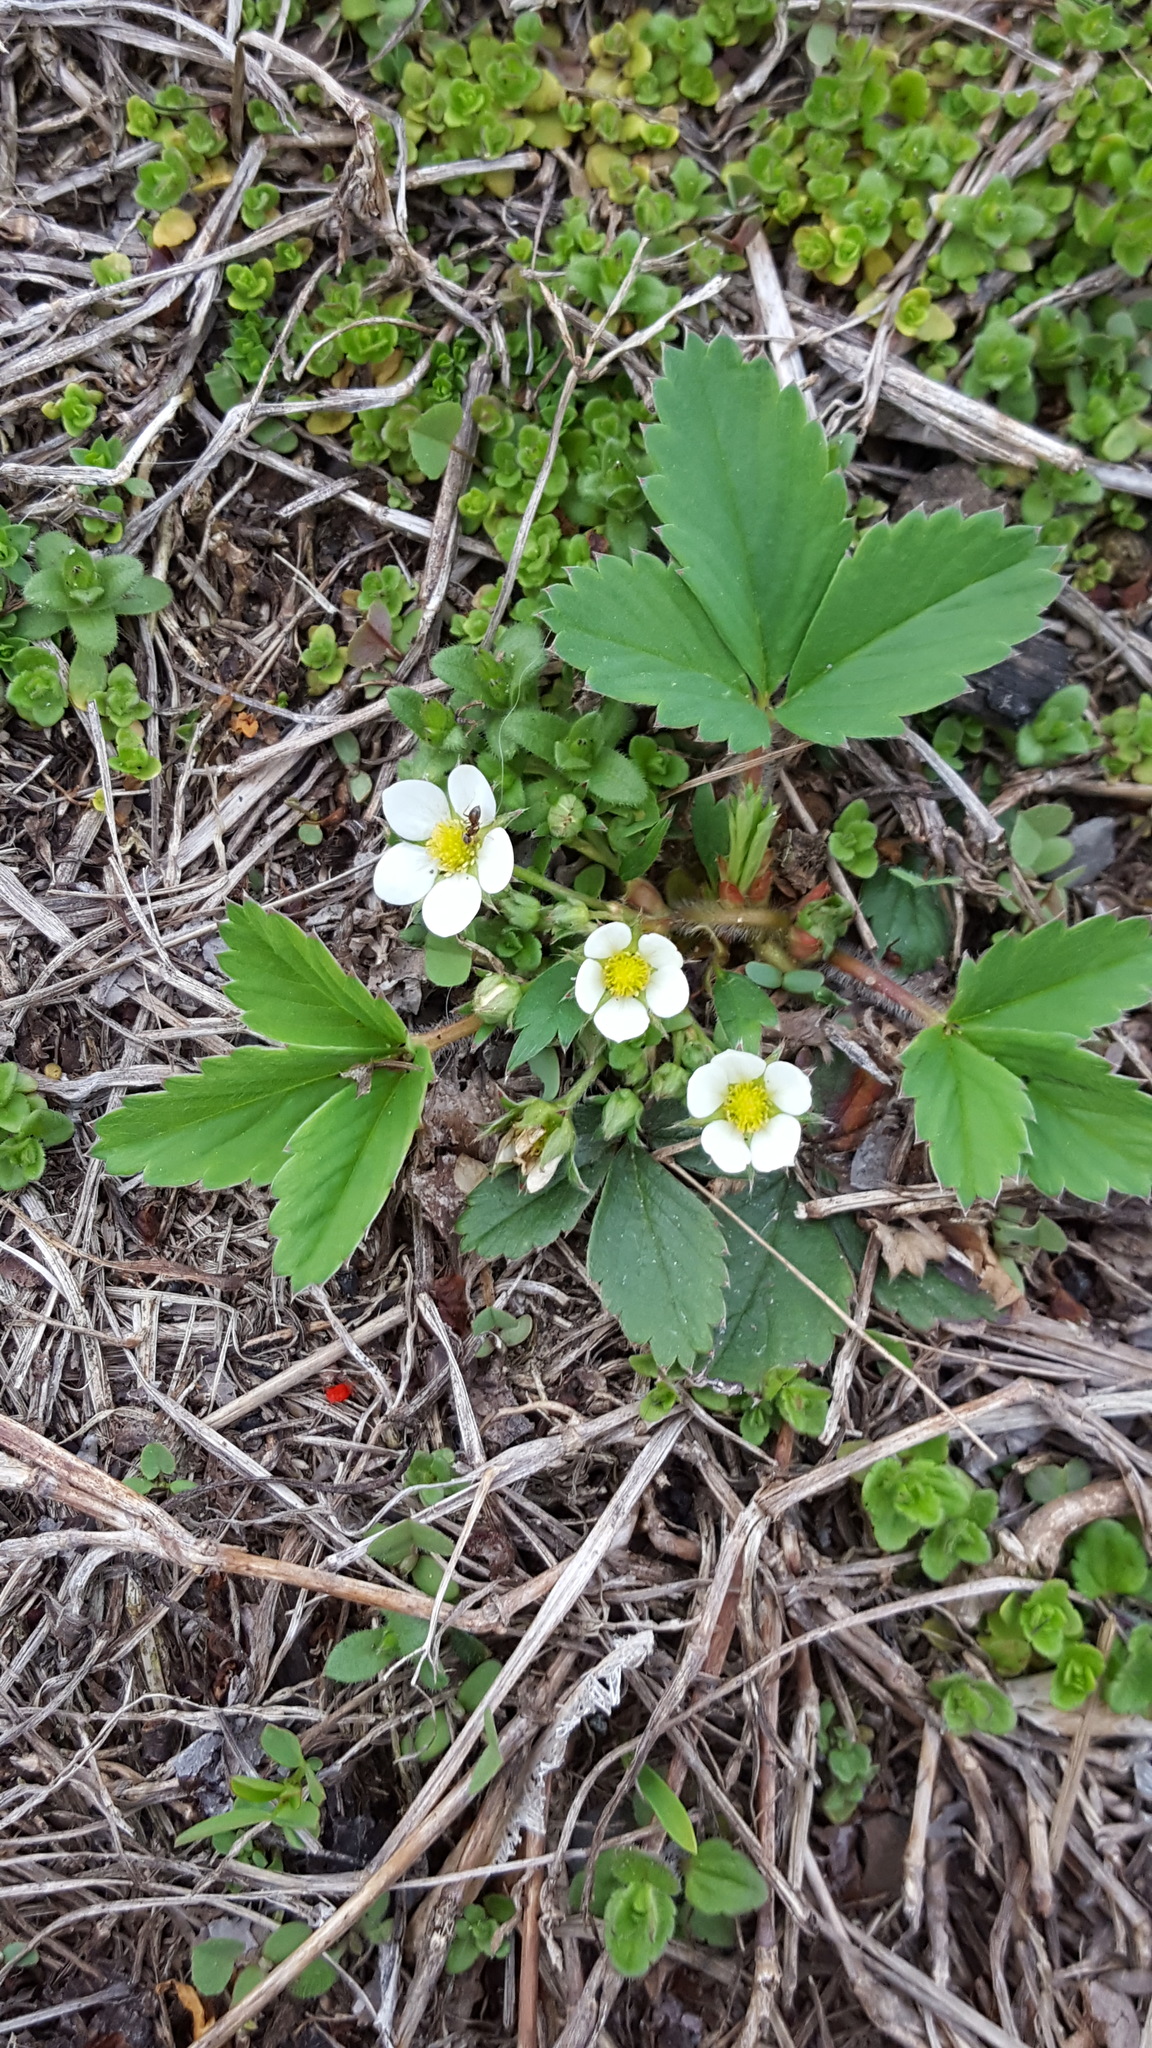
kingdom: Plantae
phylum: Tracheophyta
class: Magnoliopsida
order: Rosales
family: Rosaceae
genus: Fragaria
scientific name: Fragaria virginiana
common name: Thickleaved wild strawberry
